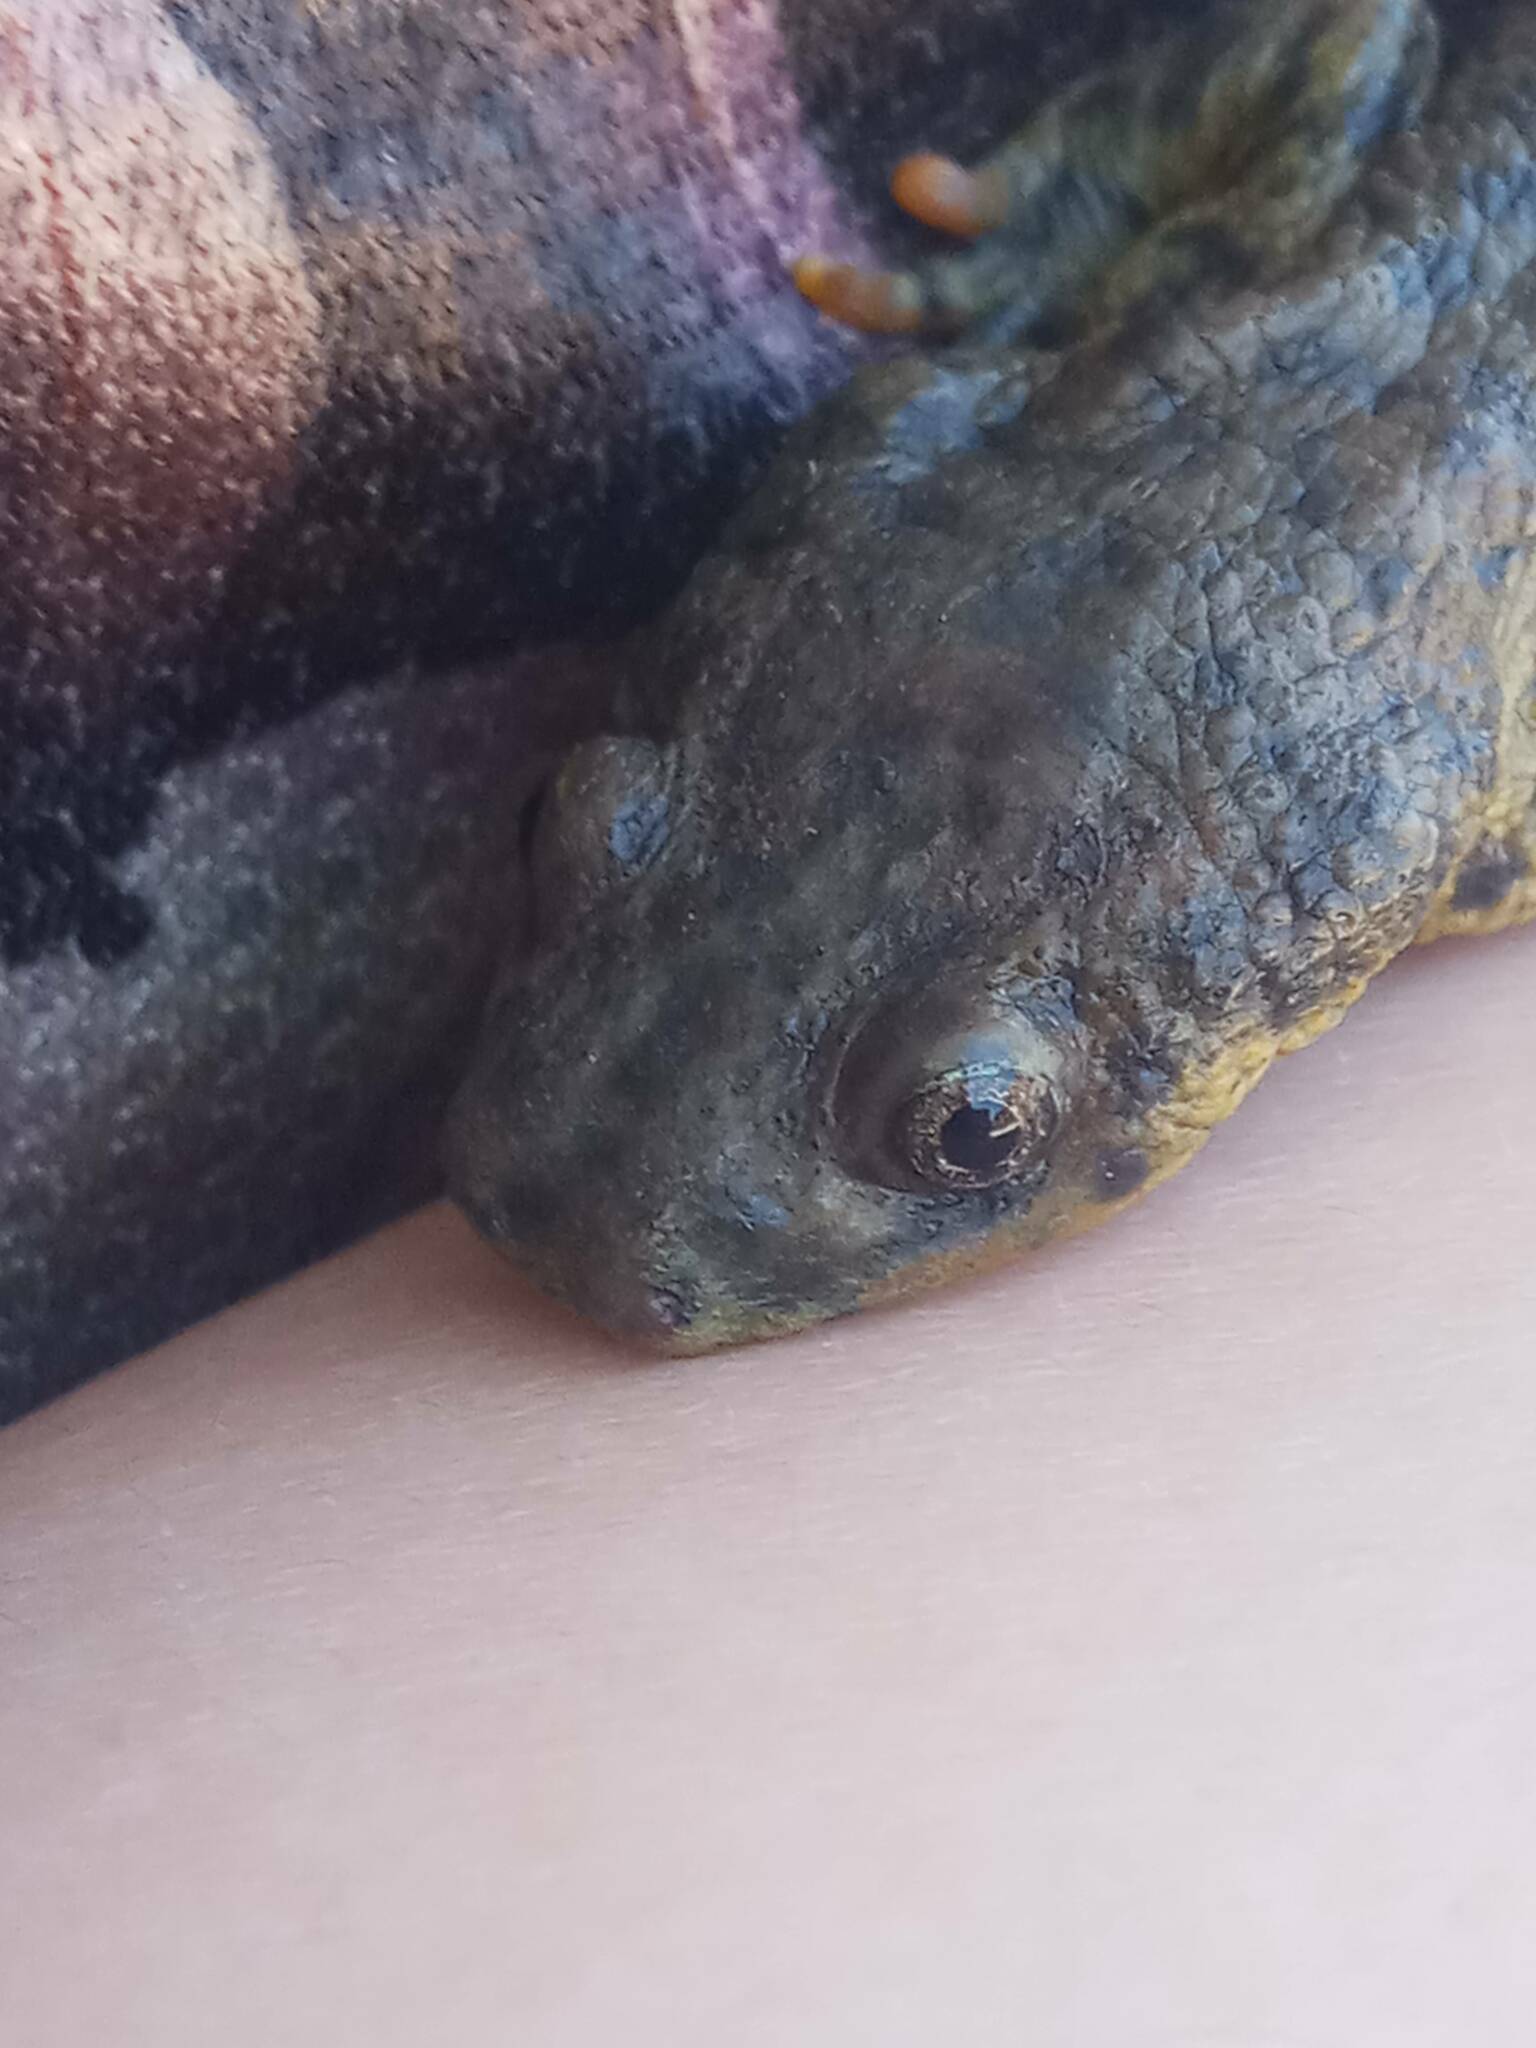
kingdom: Animalia
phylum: Chordata
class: Amphibia
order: Caudata
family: Salamandridae
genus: Pleurodeles
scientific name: Pleurodeles nebulosus
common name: Algerian ribbed newt
